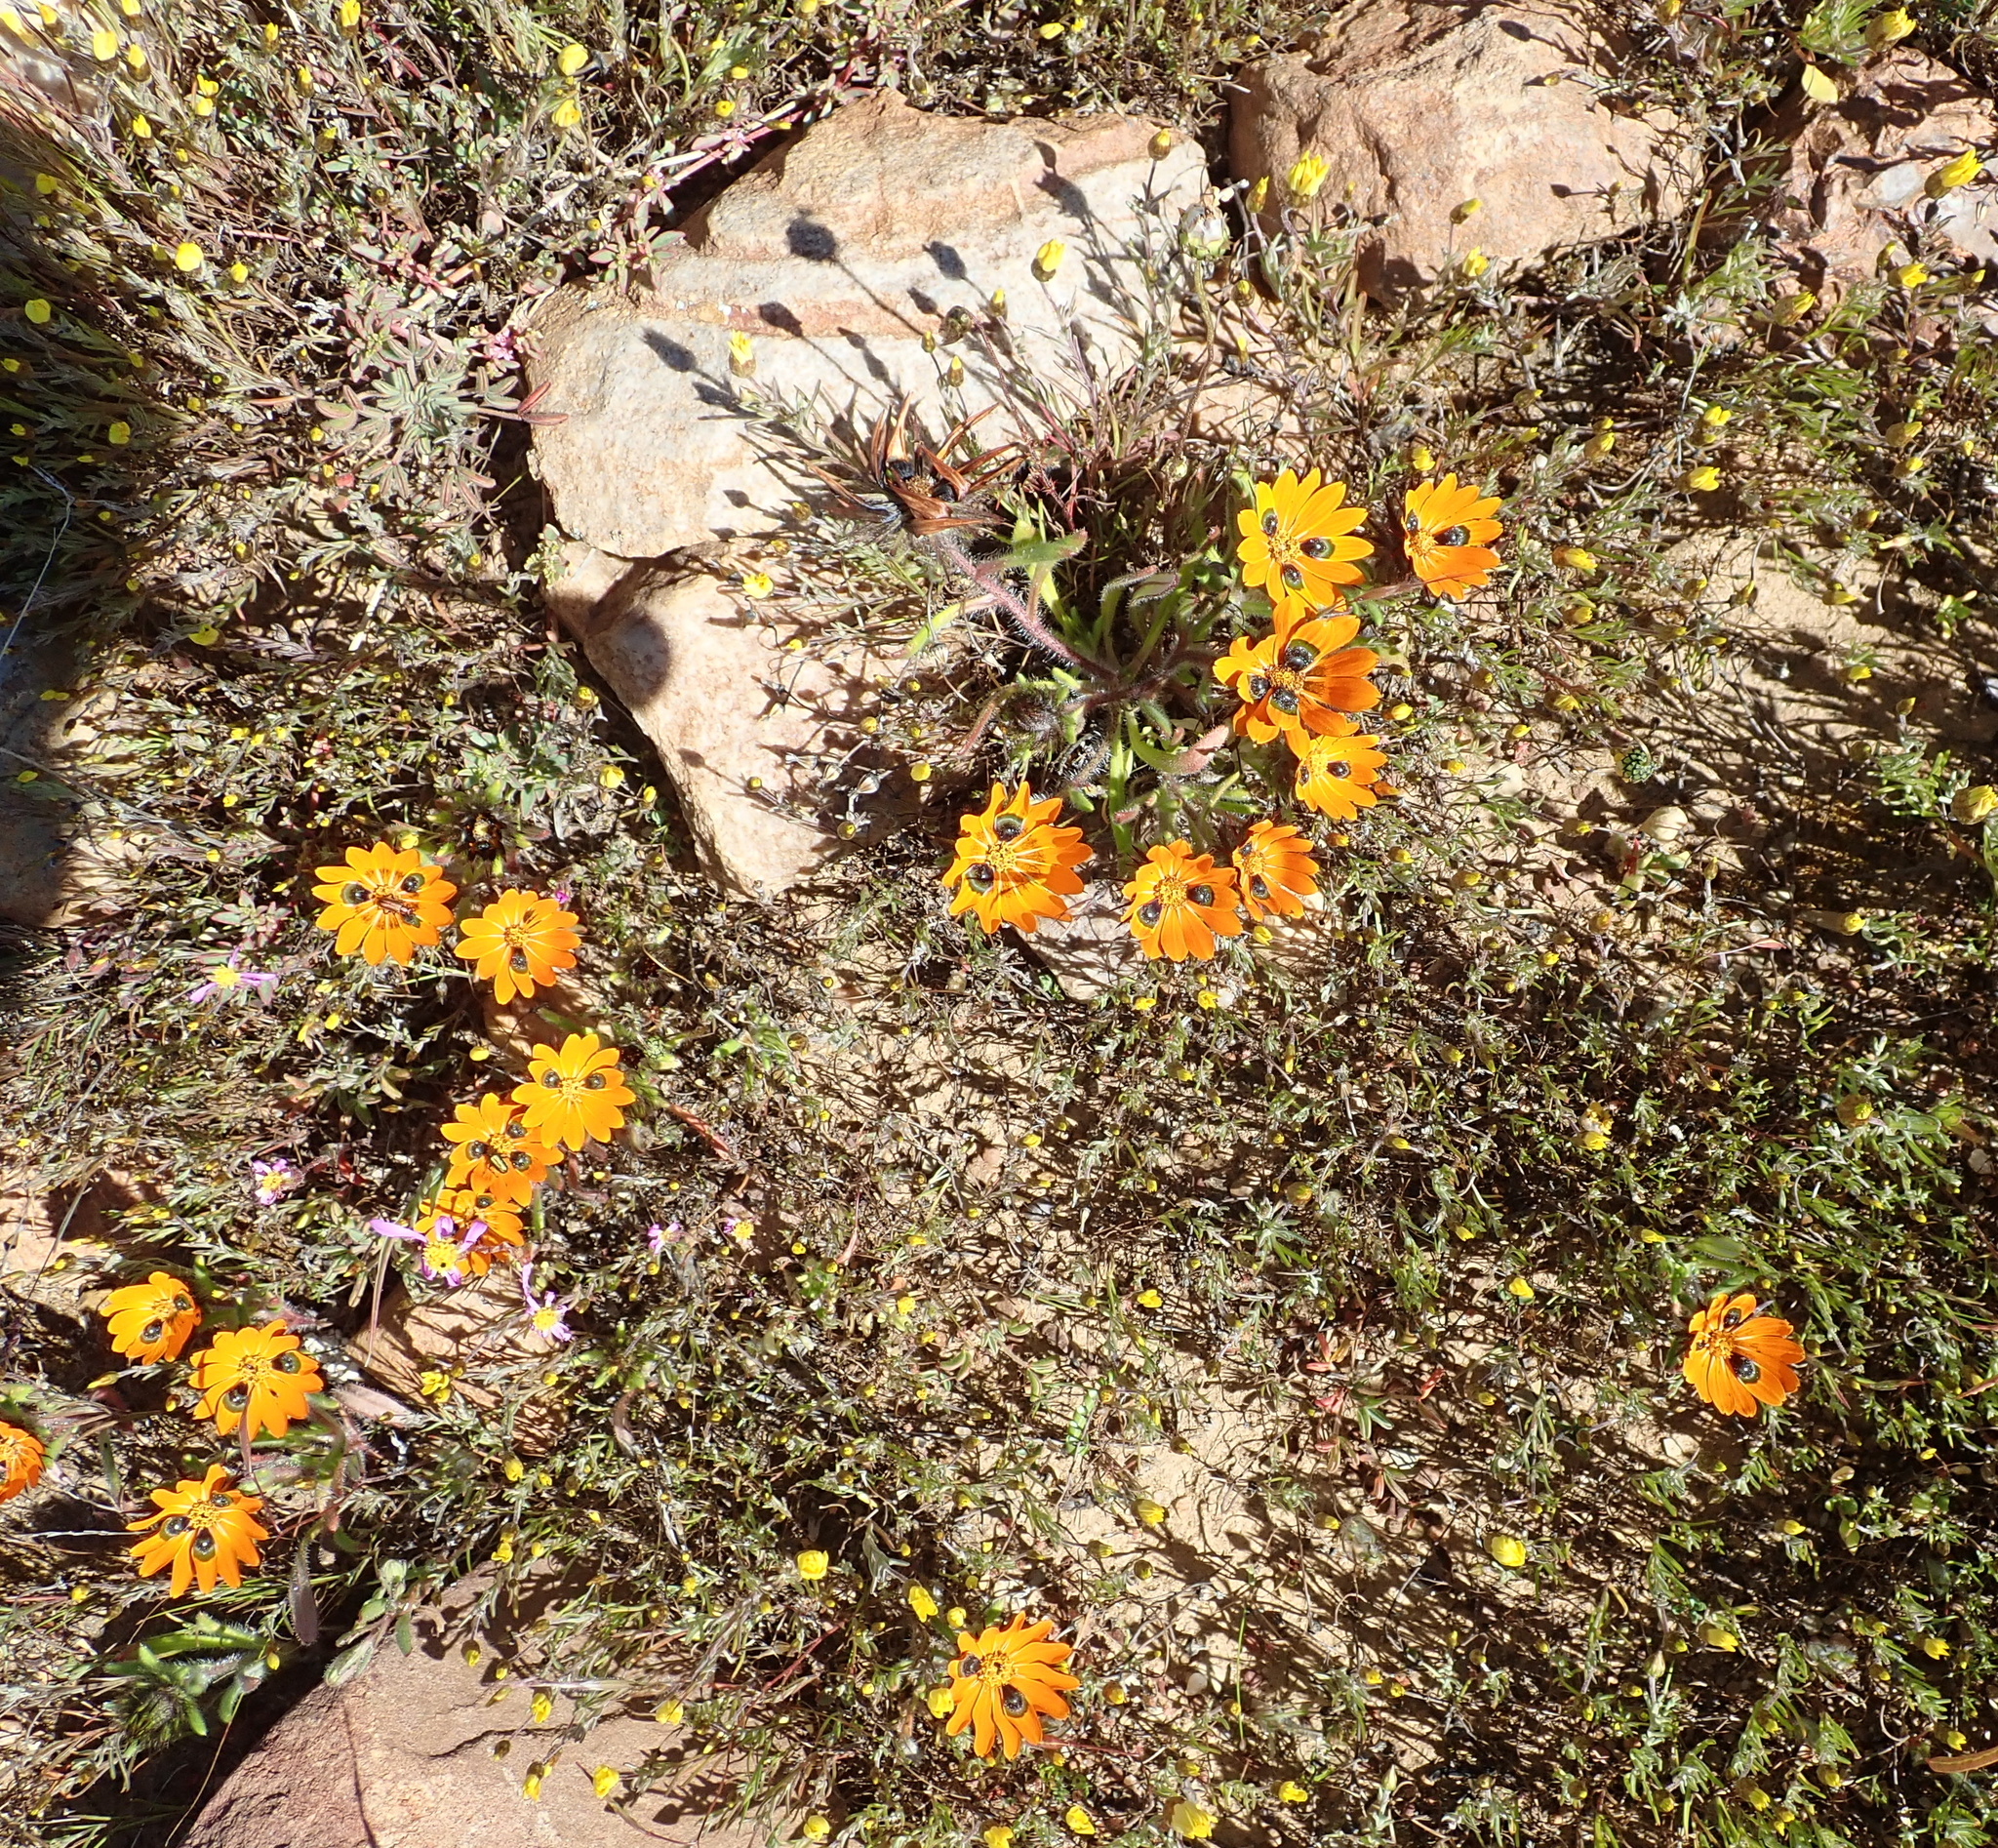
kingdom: Plantae
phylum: Tracheophyta
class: Magnoliopsida
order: Asterales
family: Asteraceae
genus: Gorteria
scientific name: Gorteria diffusa
